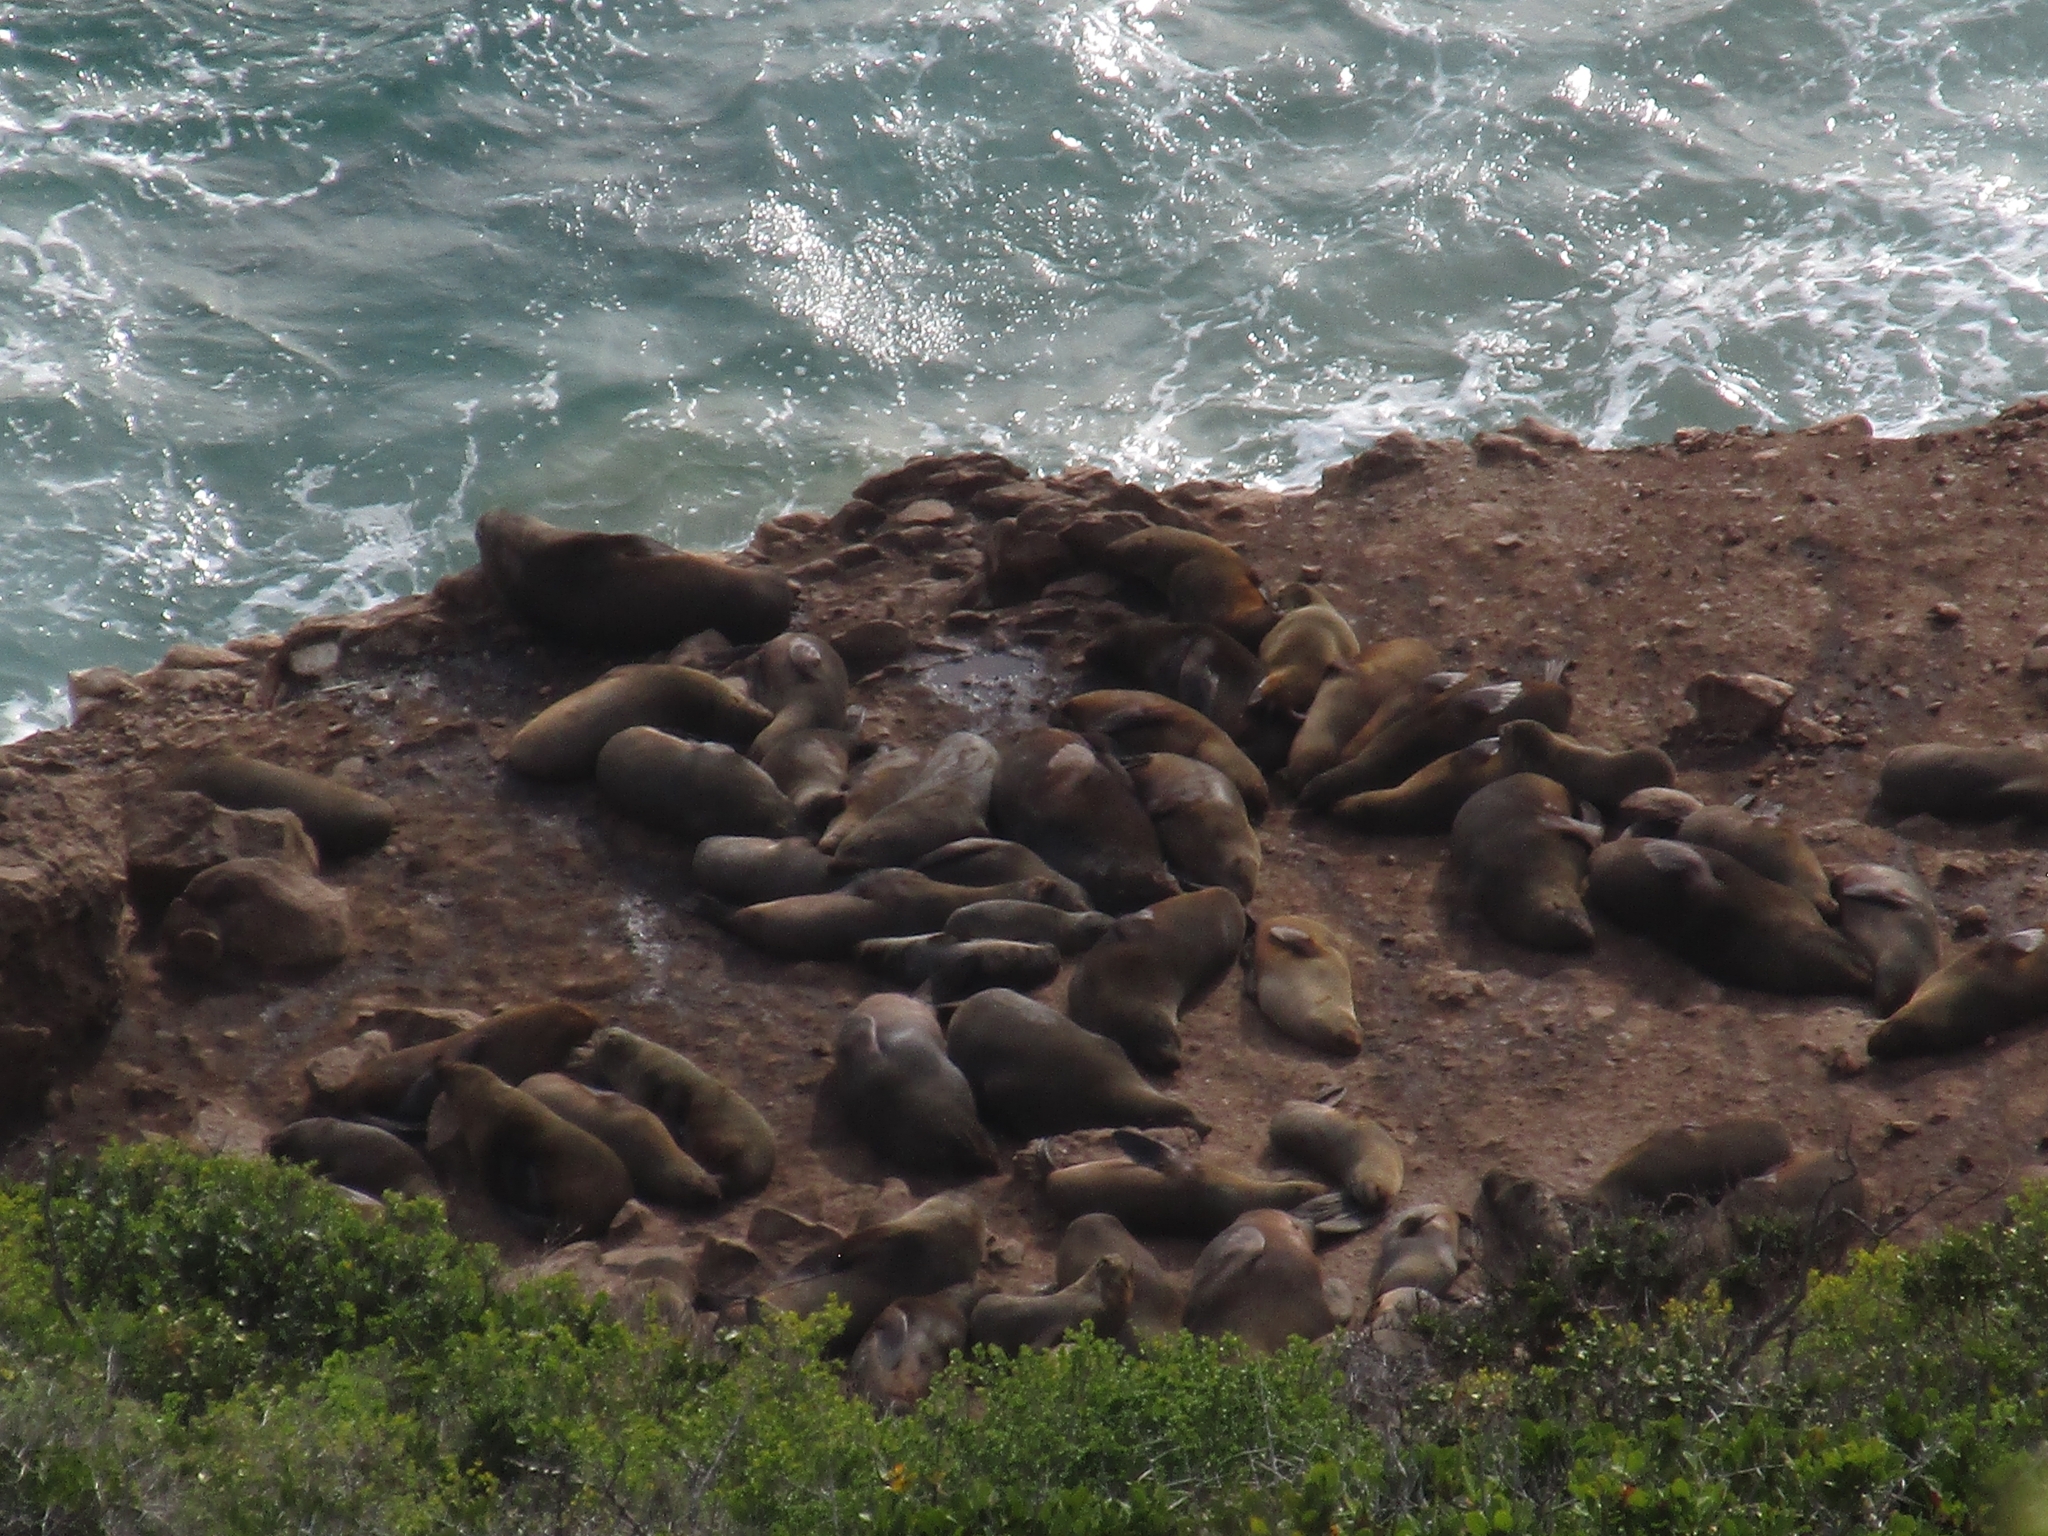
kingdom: Animalia
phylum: Chordata
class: Mammalia
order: Carnivora
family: Otariidae
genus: Arctocephalus
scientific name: Arctocephalus pusillus
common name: Brown fur seal
